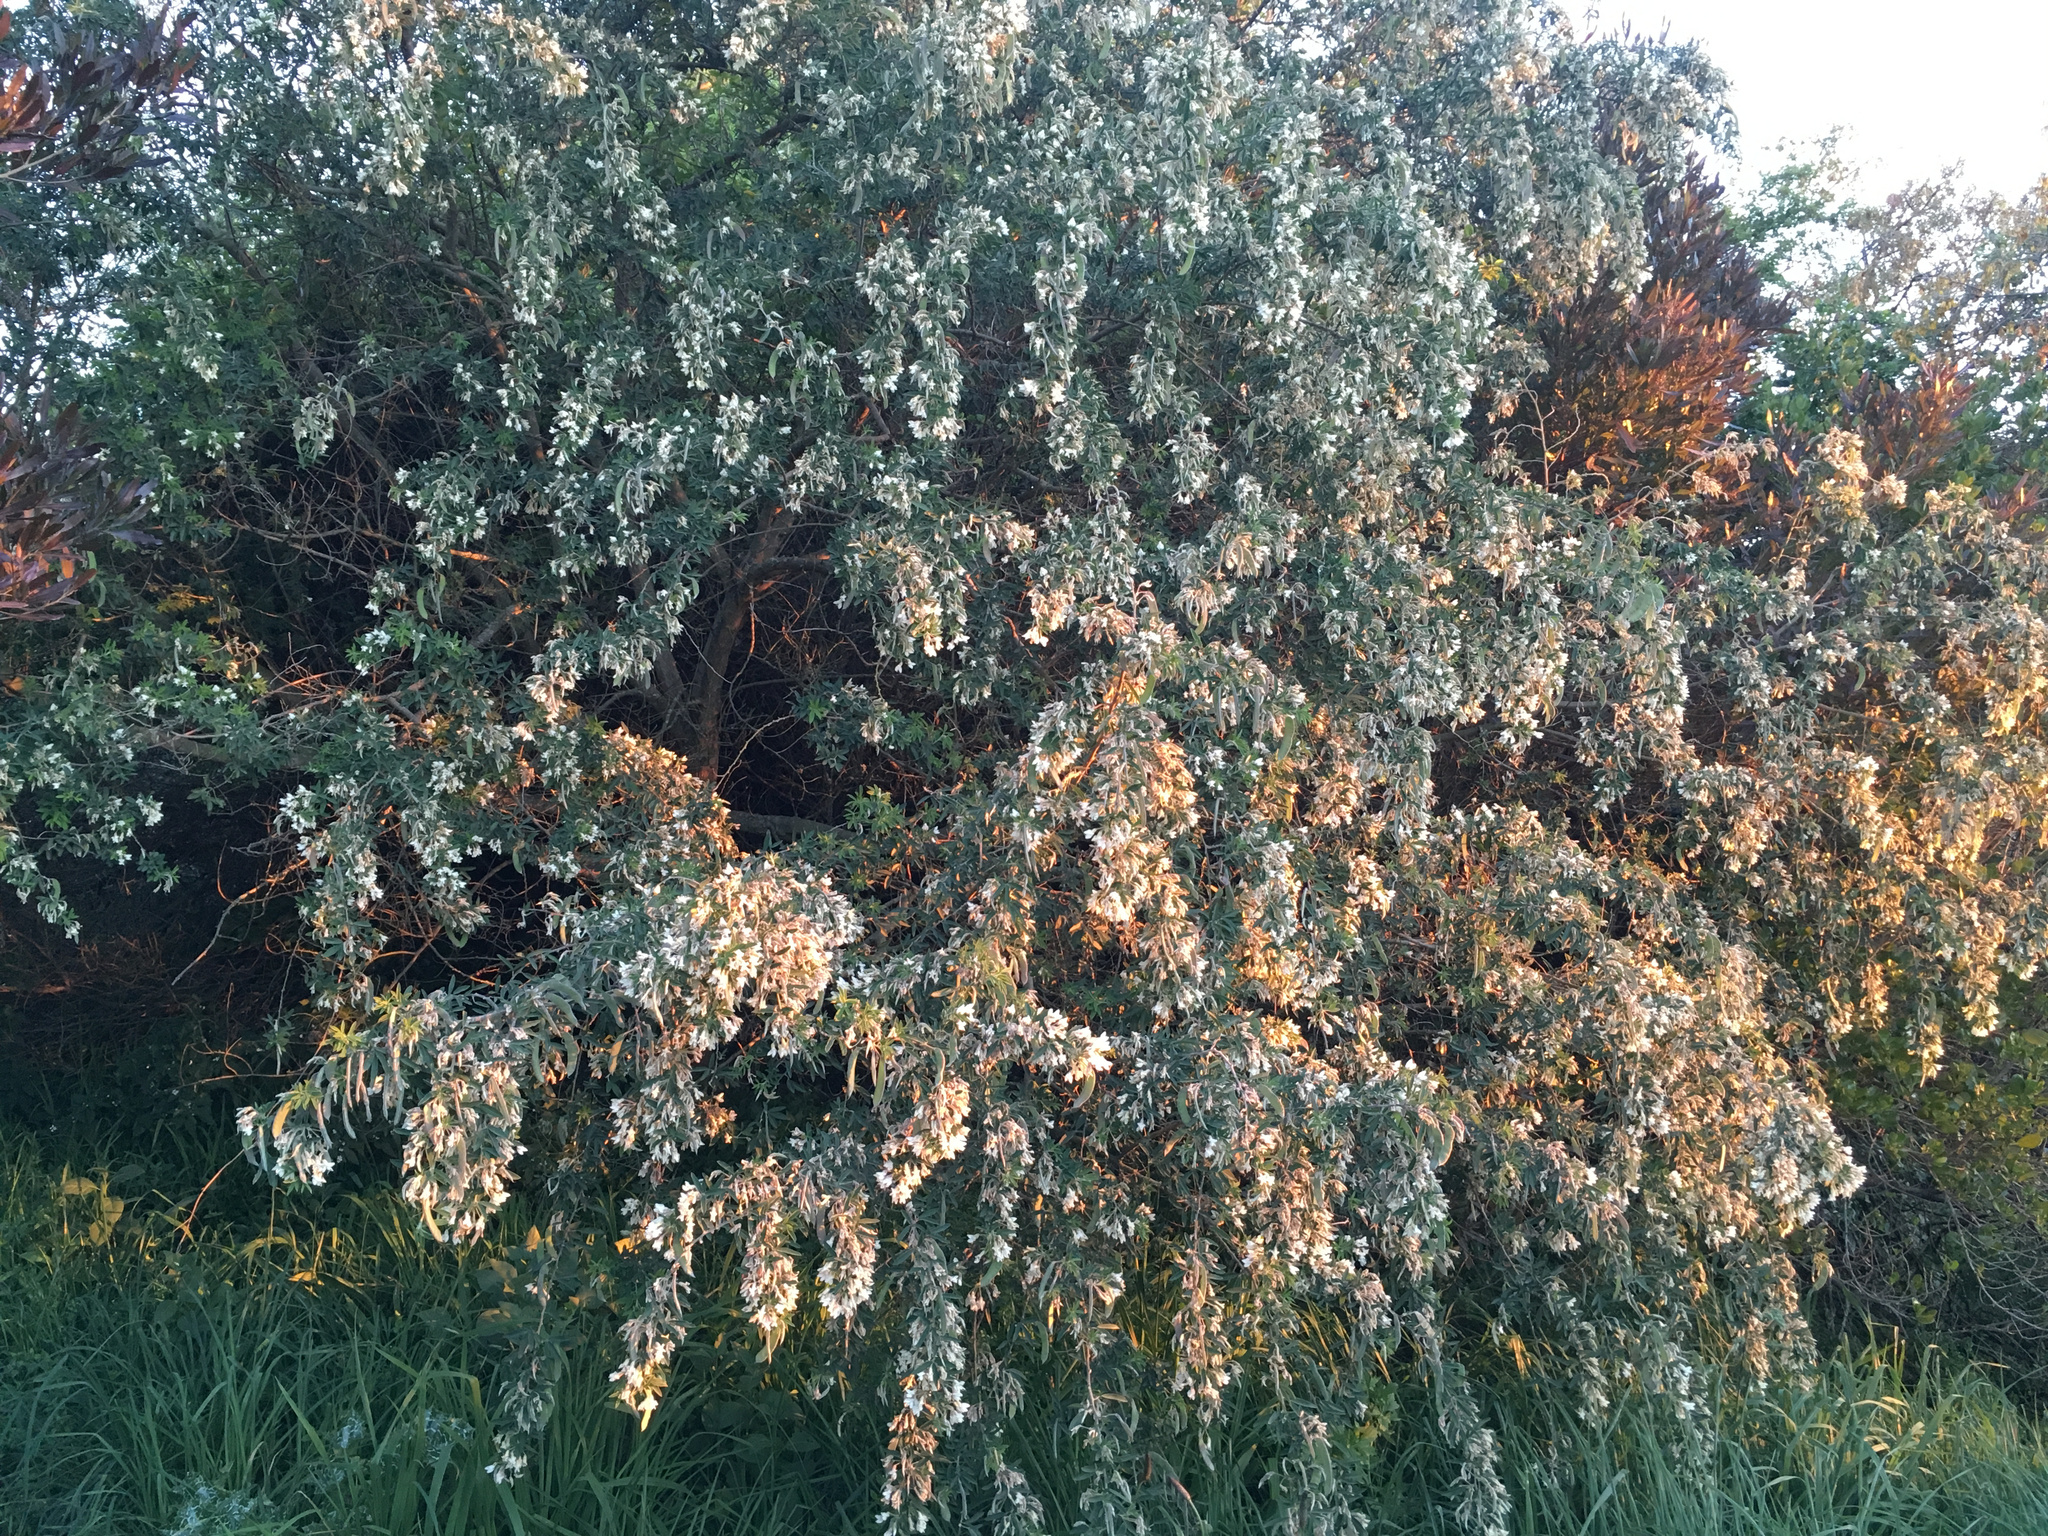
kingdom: Plantae
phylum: Tracheophyta
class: Magnoliopsida
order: Fabales
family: Fabaceae
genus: Chamaecytisus
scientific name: Chamaecytisus prolifer
